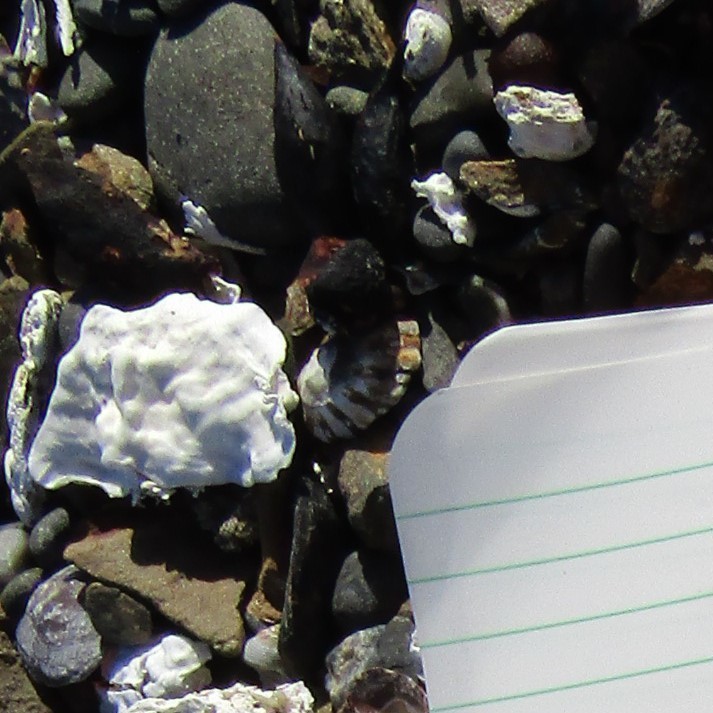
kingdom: Animalia
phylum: Mollusca
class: Gastropoda
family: Nacellidae
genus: Cellana
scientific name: Cellana ornata
